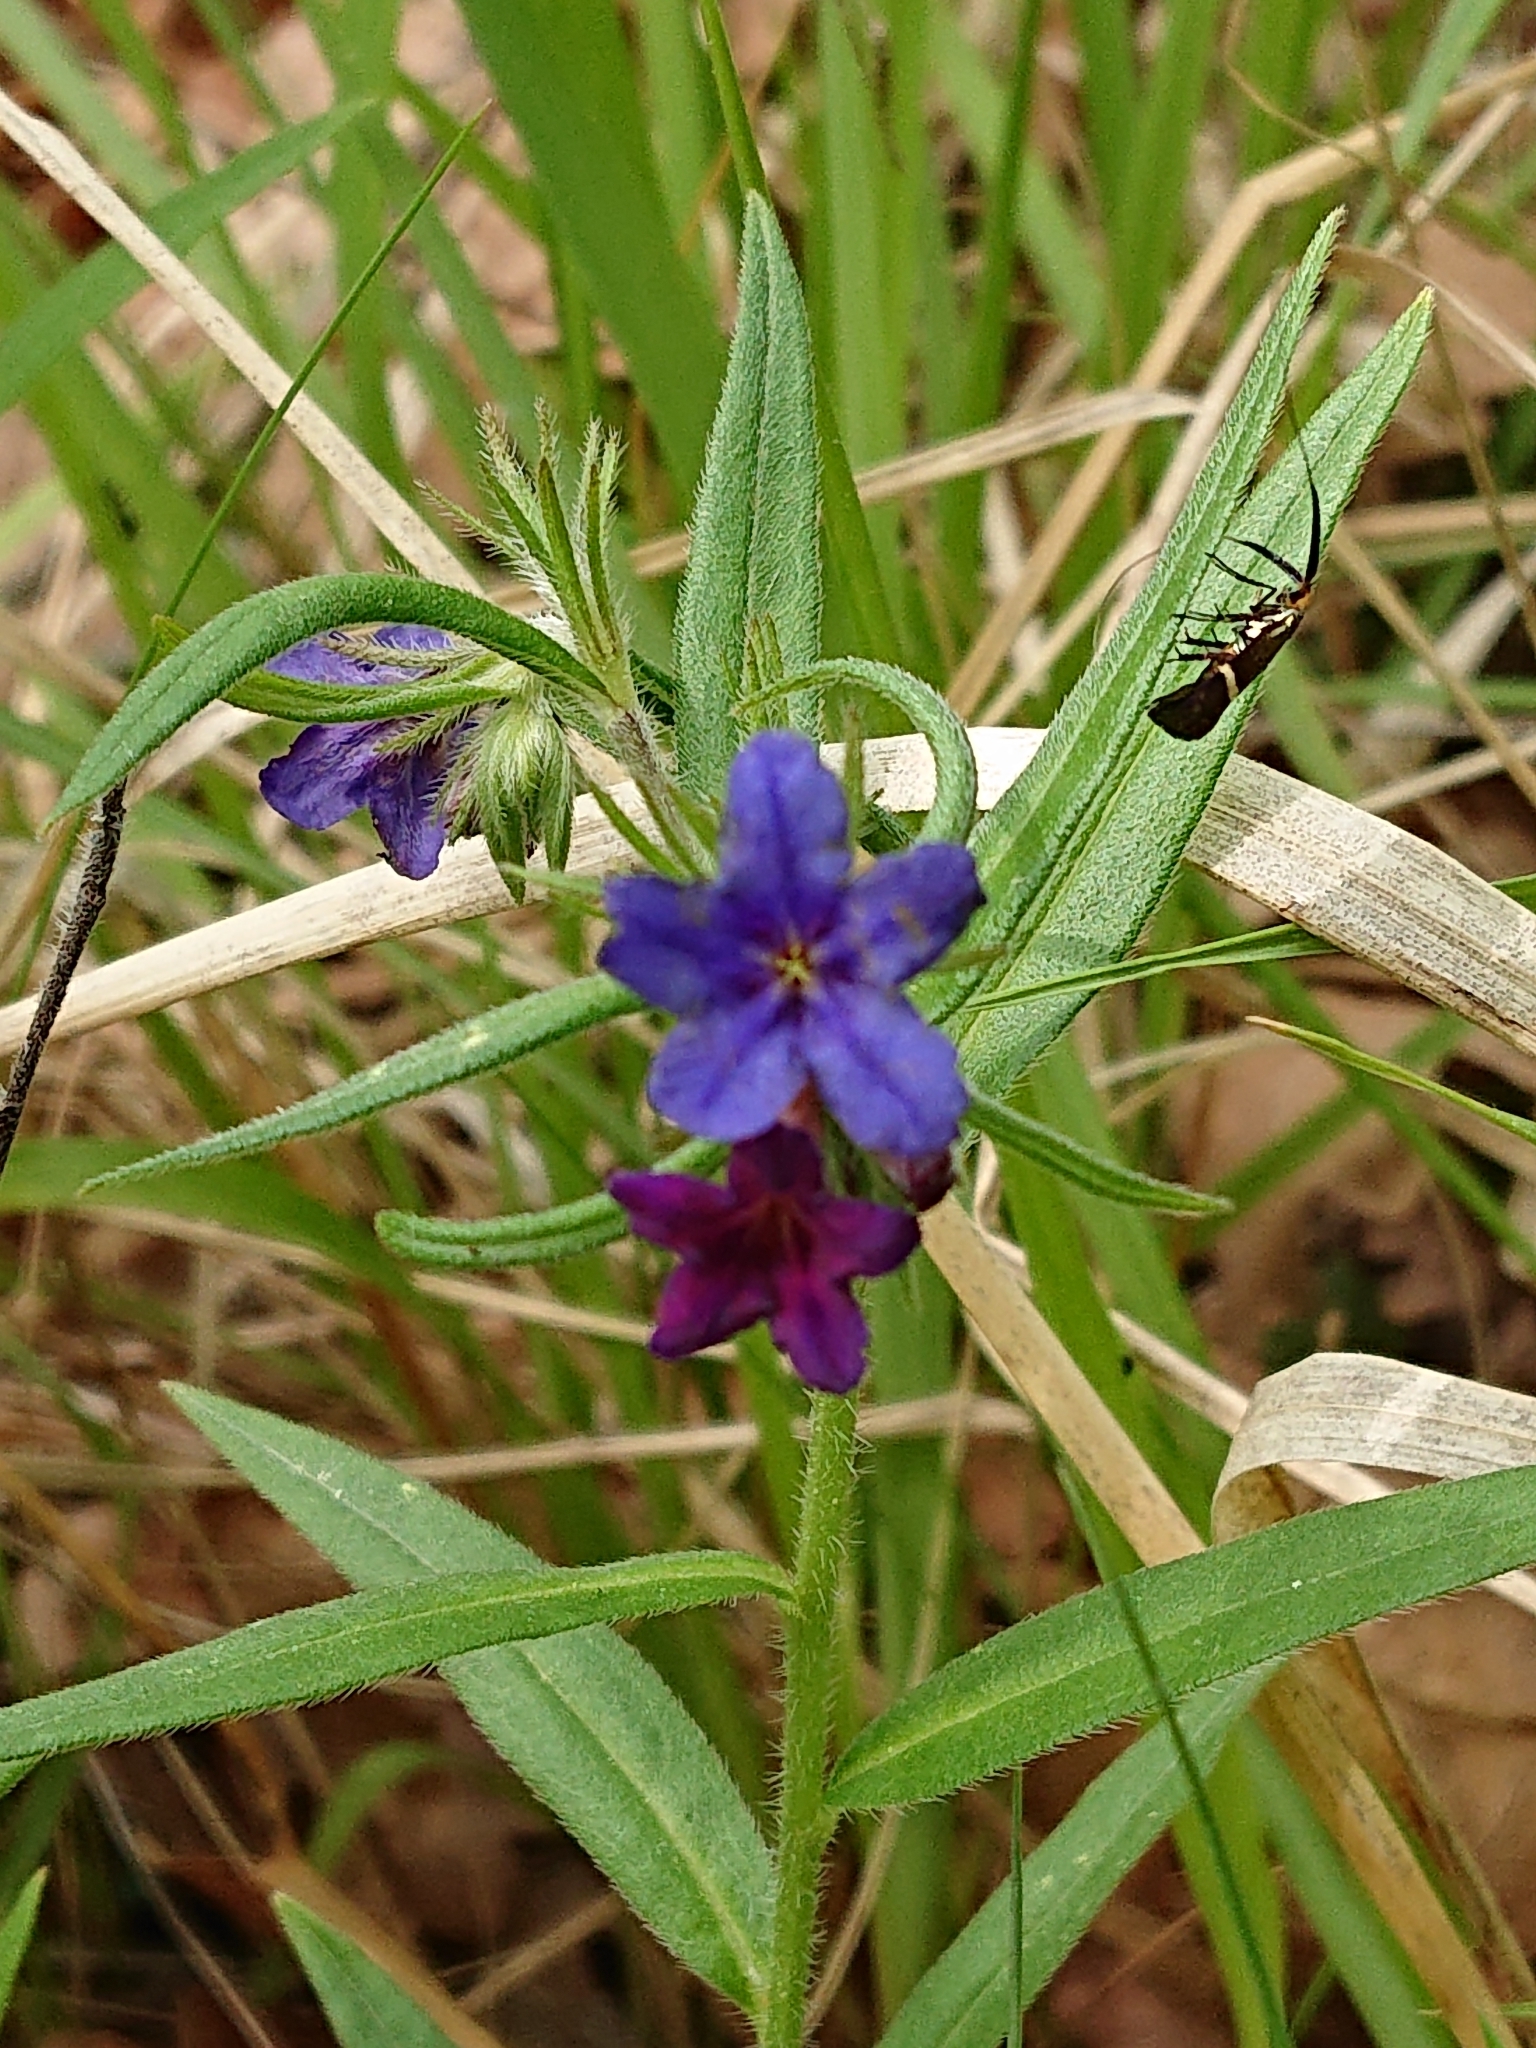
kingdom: Plantae
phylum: Tracheophyta
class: Magnoliopsida
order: Boraginales
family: Boraginaceae
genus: Aegonychon
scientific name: Aegonychon purpurocaeruleum
